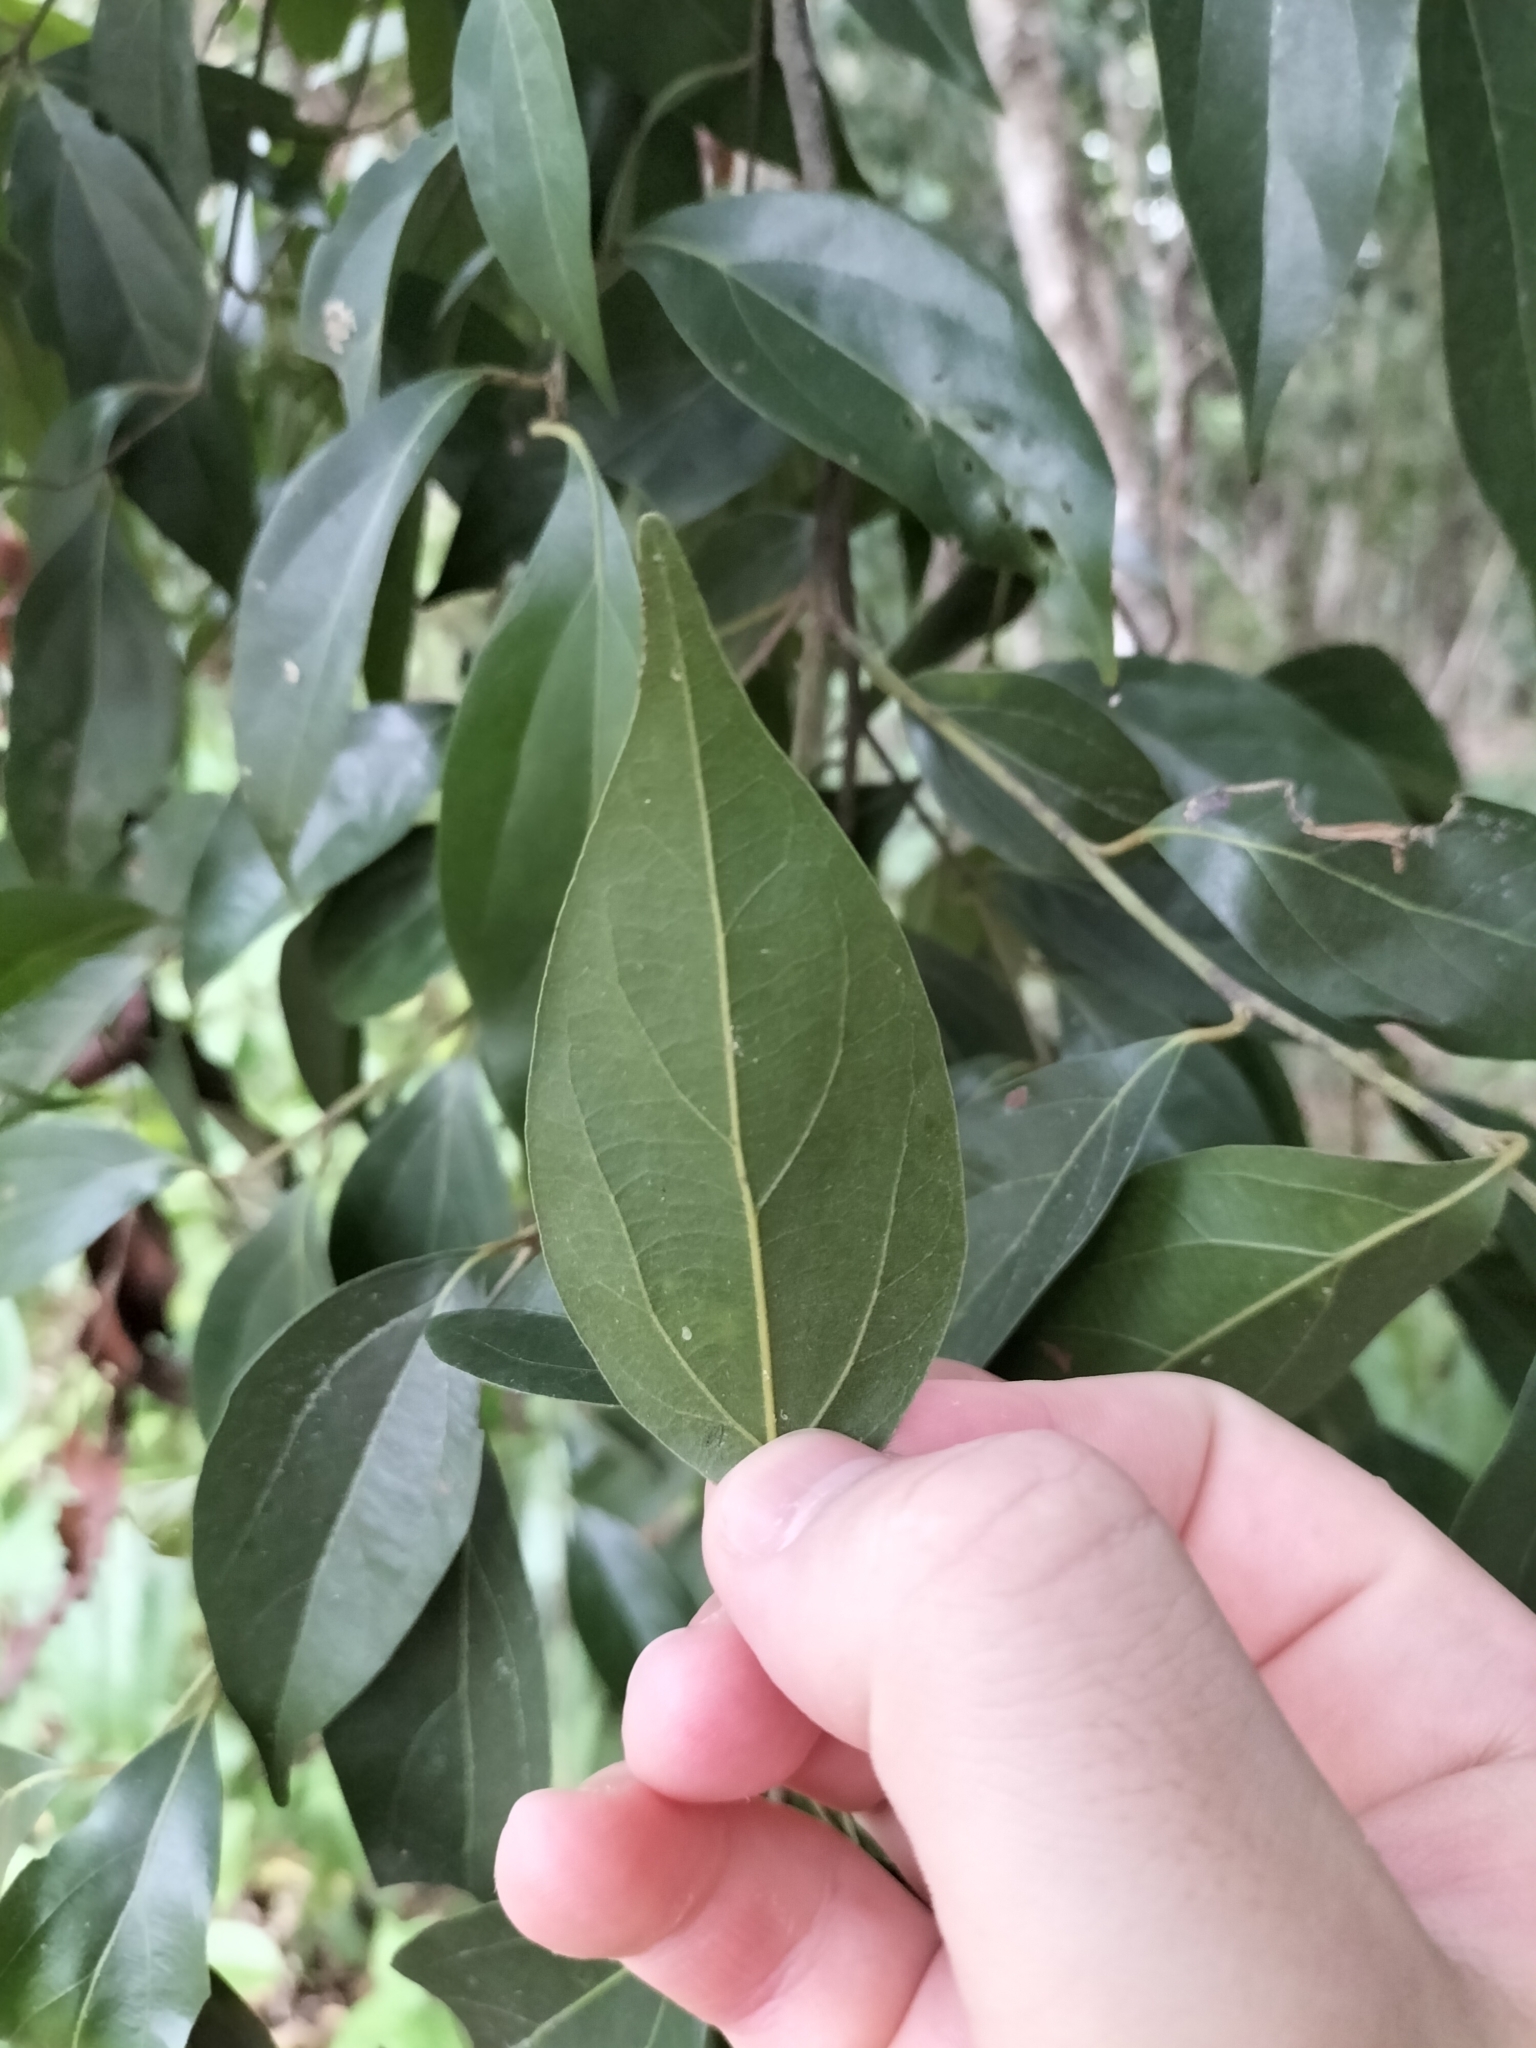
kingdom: Plantae
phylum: Tracheophyta
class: Magnoliopsida
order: Laurales
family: Lauraceae
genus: Cryptocarya
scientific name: Cryptocarya triplinervis
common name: Three-vein cryptocarya
